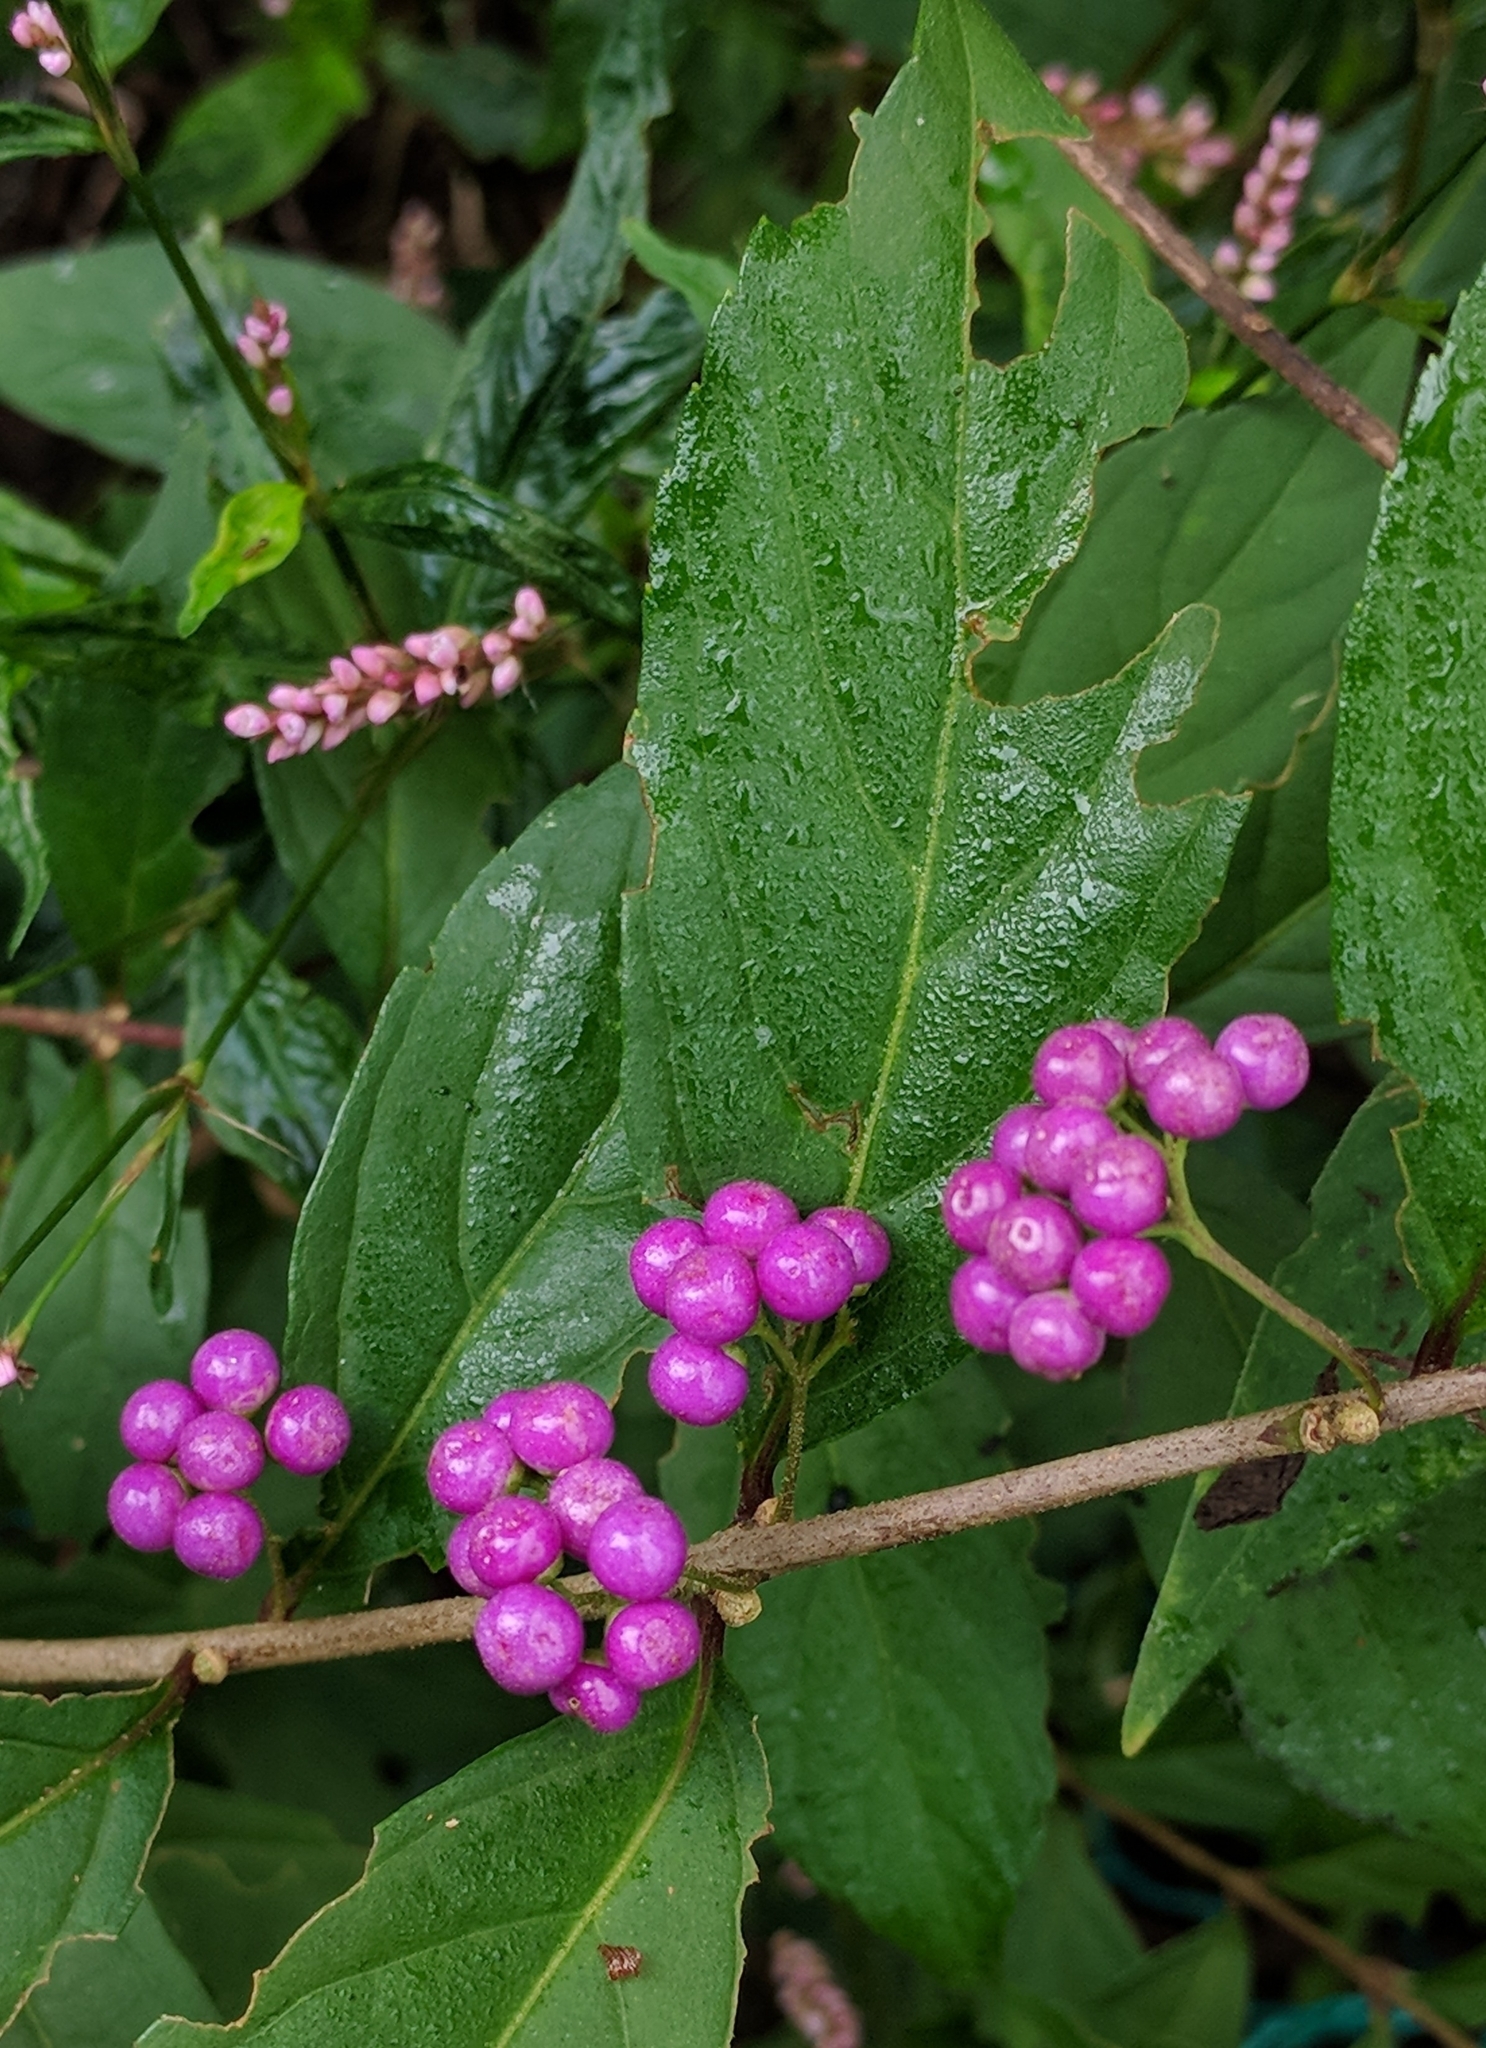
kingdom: Plantae
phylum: Tracheophyta
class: Magnoliopsida
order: Lamiales
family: Lamiaceae
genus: Callicarpa
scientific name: Callicarpa dichotoma
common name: Purple beauty-berry
